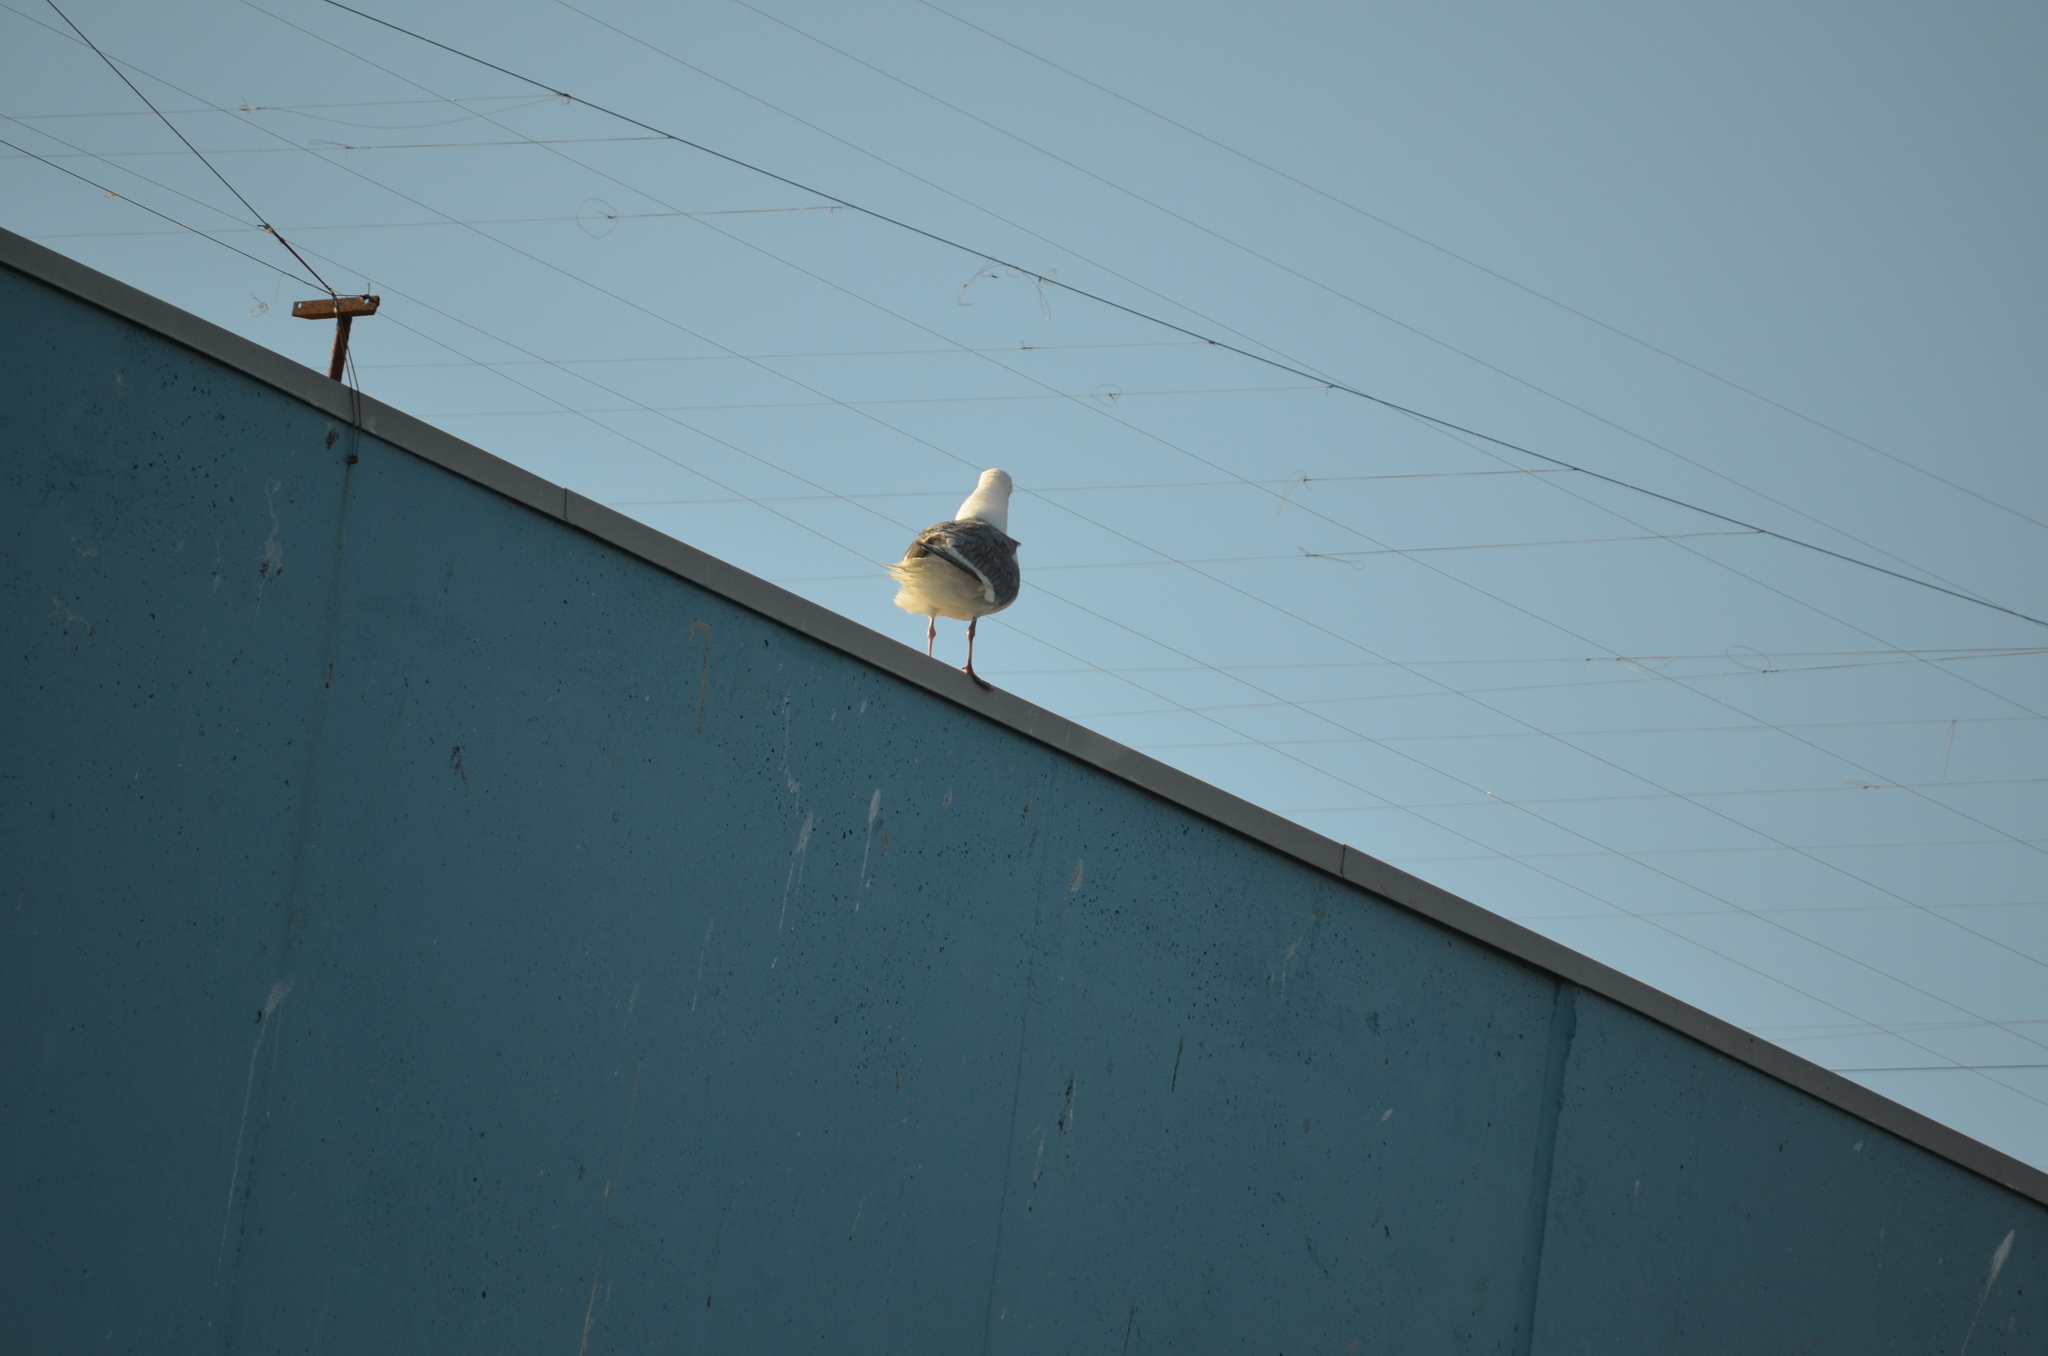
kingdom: Animalia
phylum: Chordata
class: Aves
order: Charadriiformes
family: Laridae
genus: Larus
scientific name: Larus glaucescens
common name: Glaucous-winged gull
